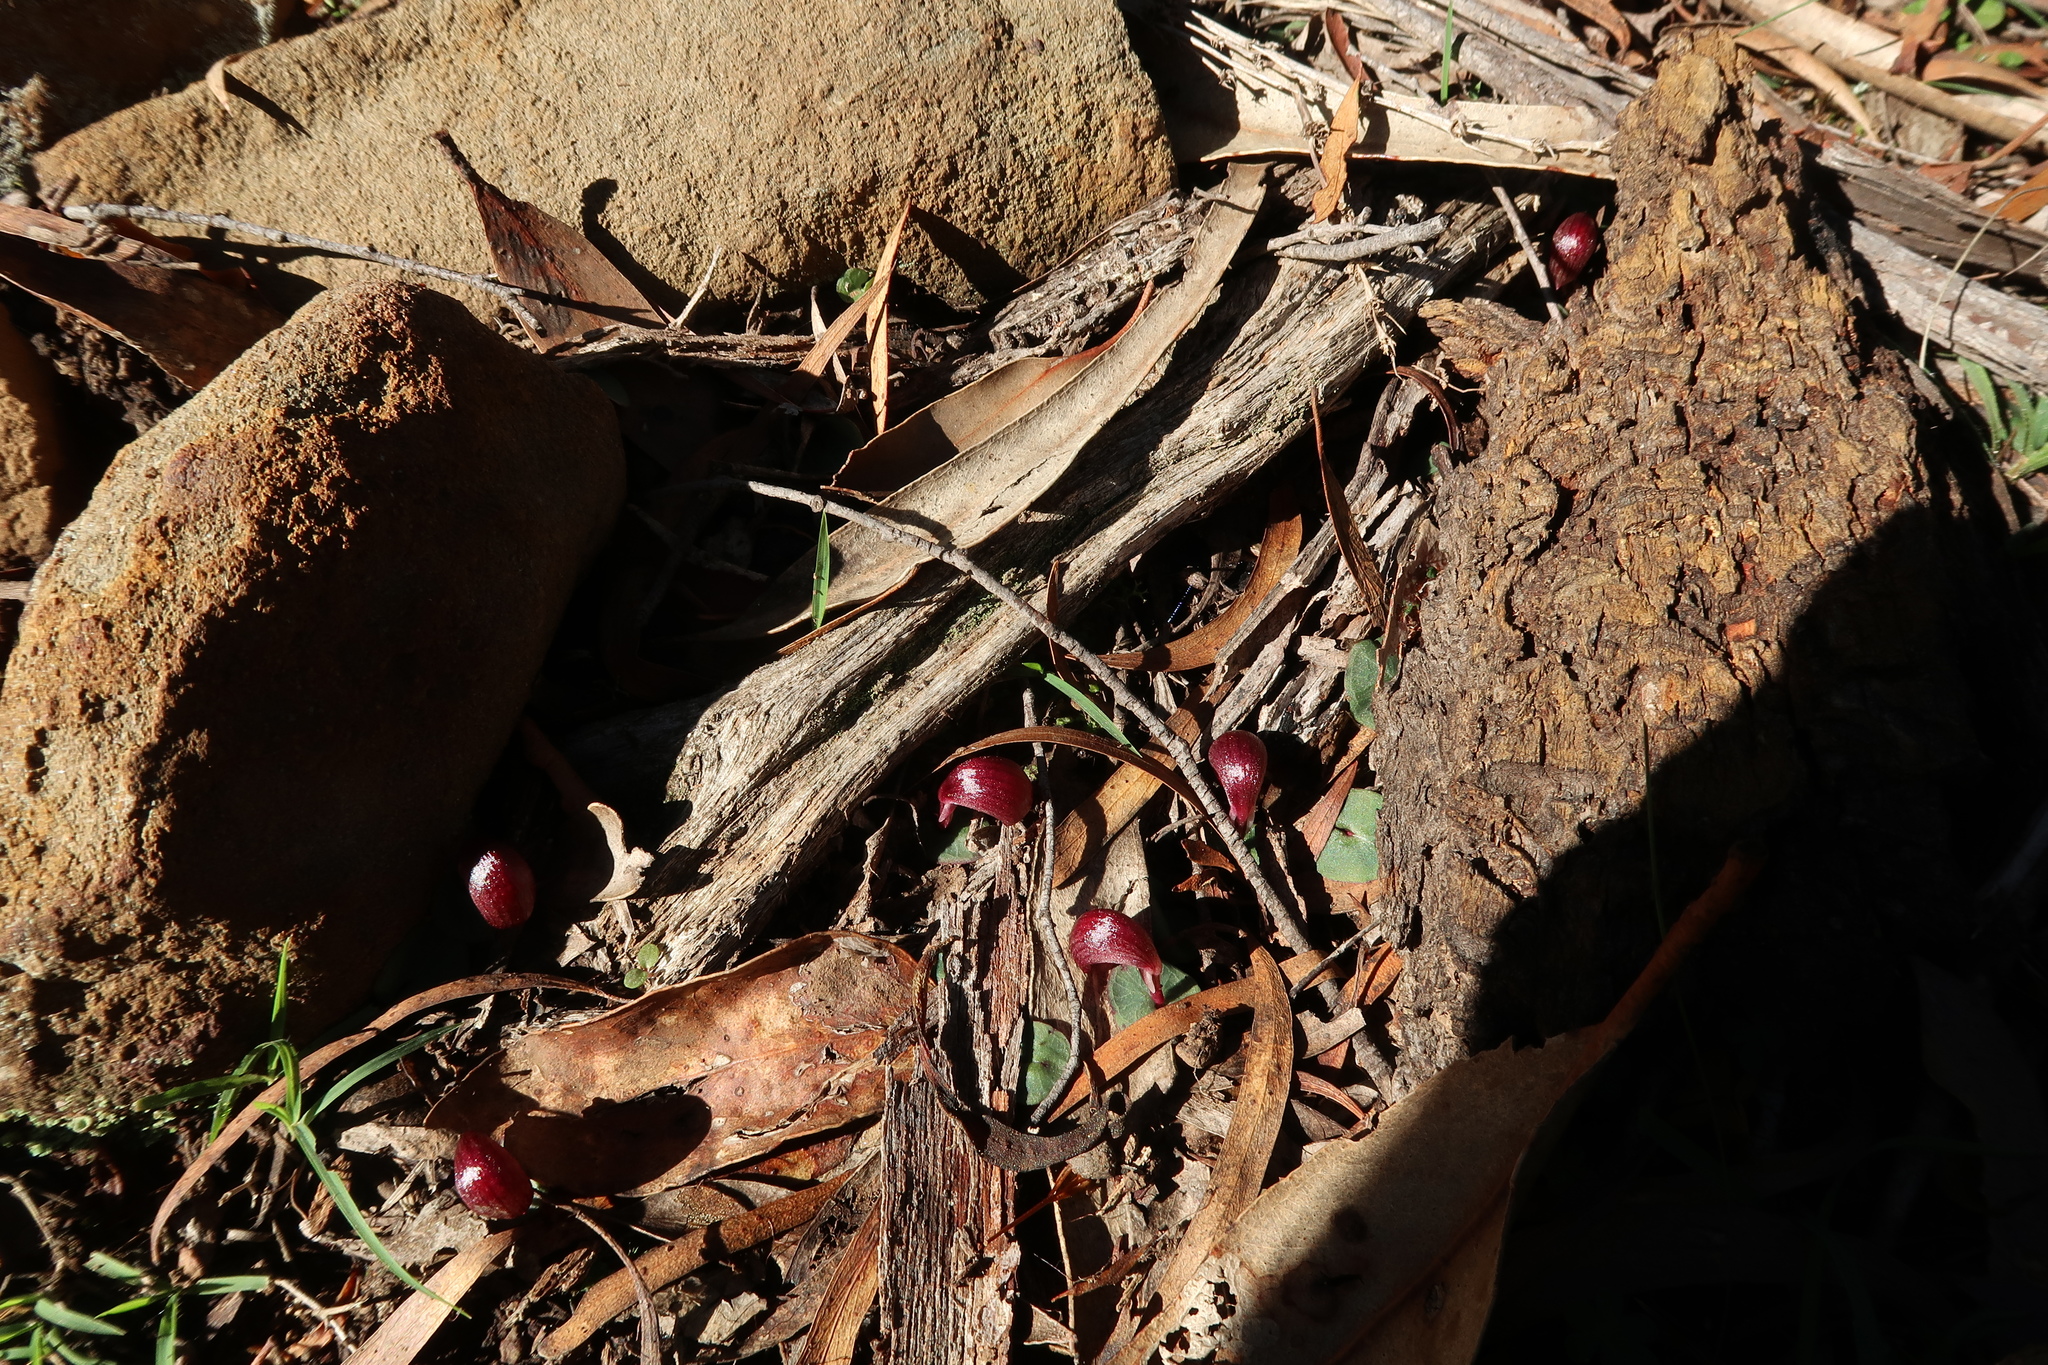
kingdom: Plantae
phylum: Tracheophyta
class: Liliopsida
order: Asparagales
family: Orchidaceae
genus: Corybas
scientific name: Corybas aconitiflorus
